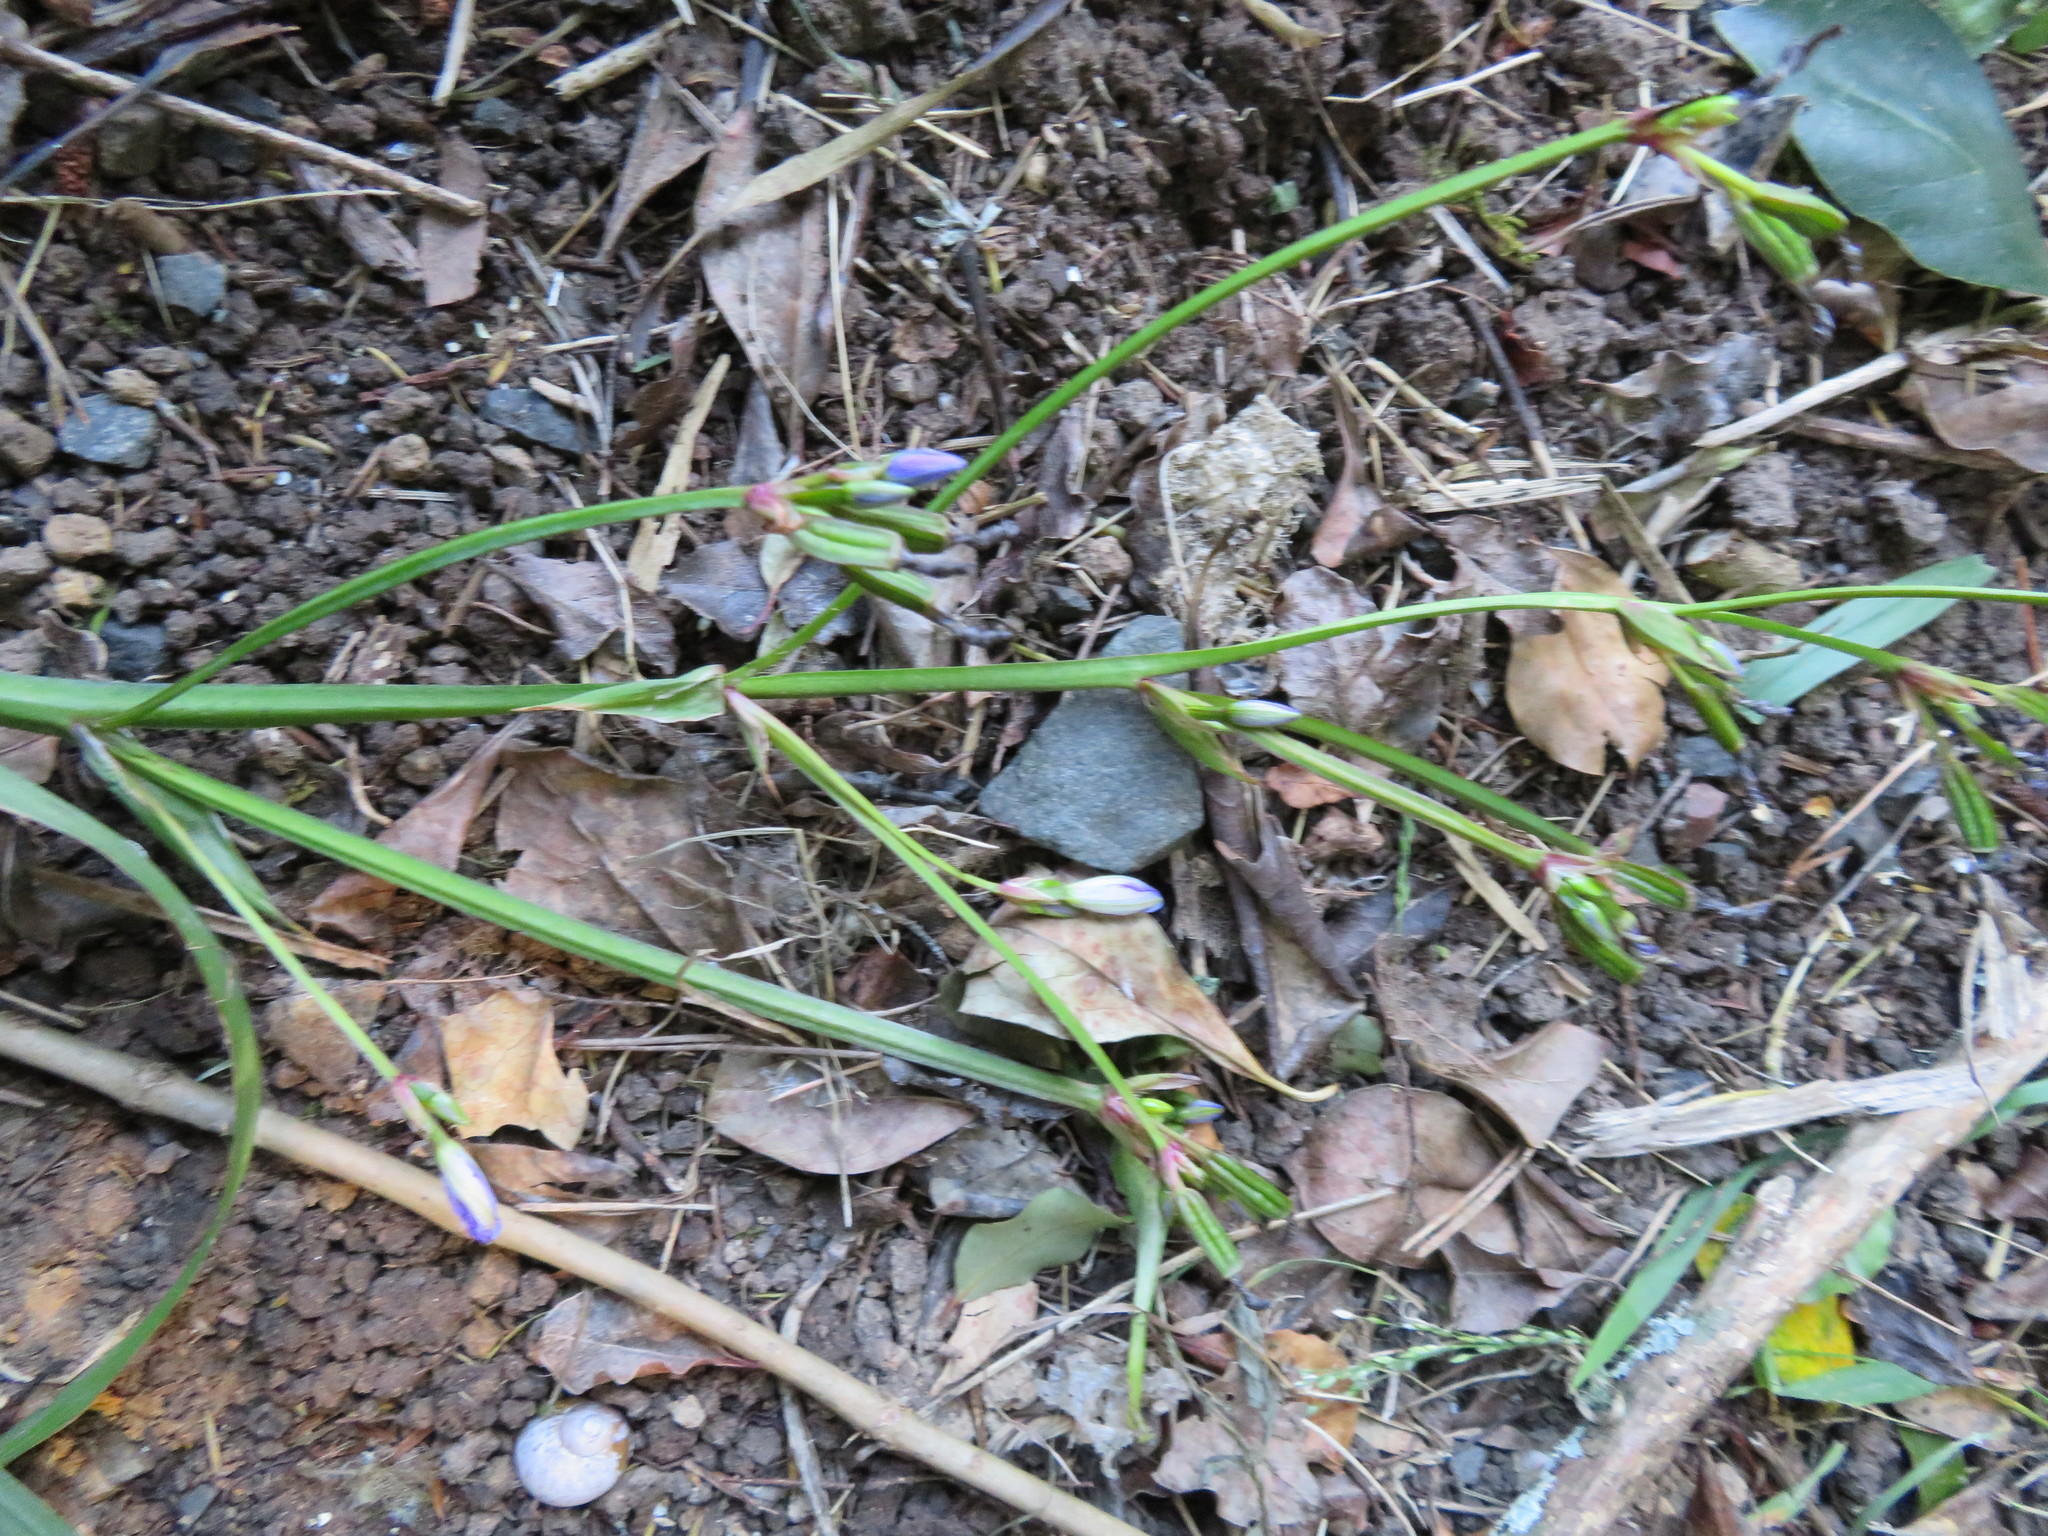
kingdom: Plantae
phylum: Tracheophyta
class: Liliopsida
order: Asparagales
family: Iridaceae
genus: Aristea
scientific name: Aristea ecklonii
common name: Blue corn-lily
